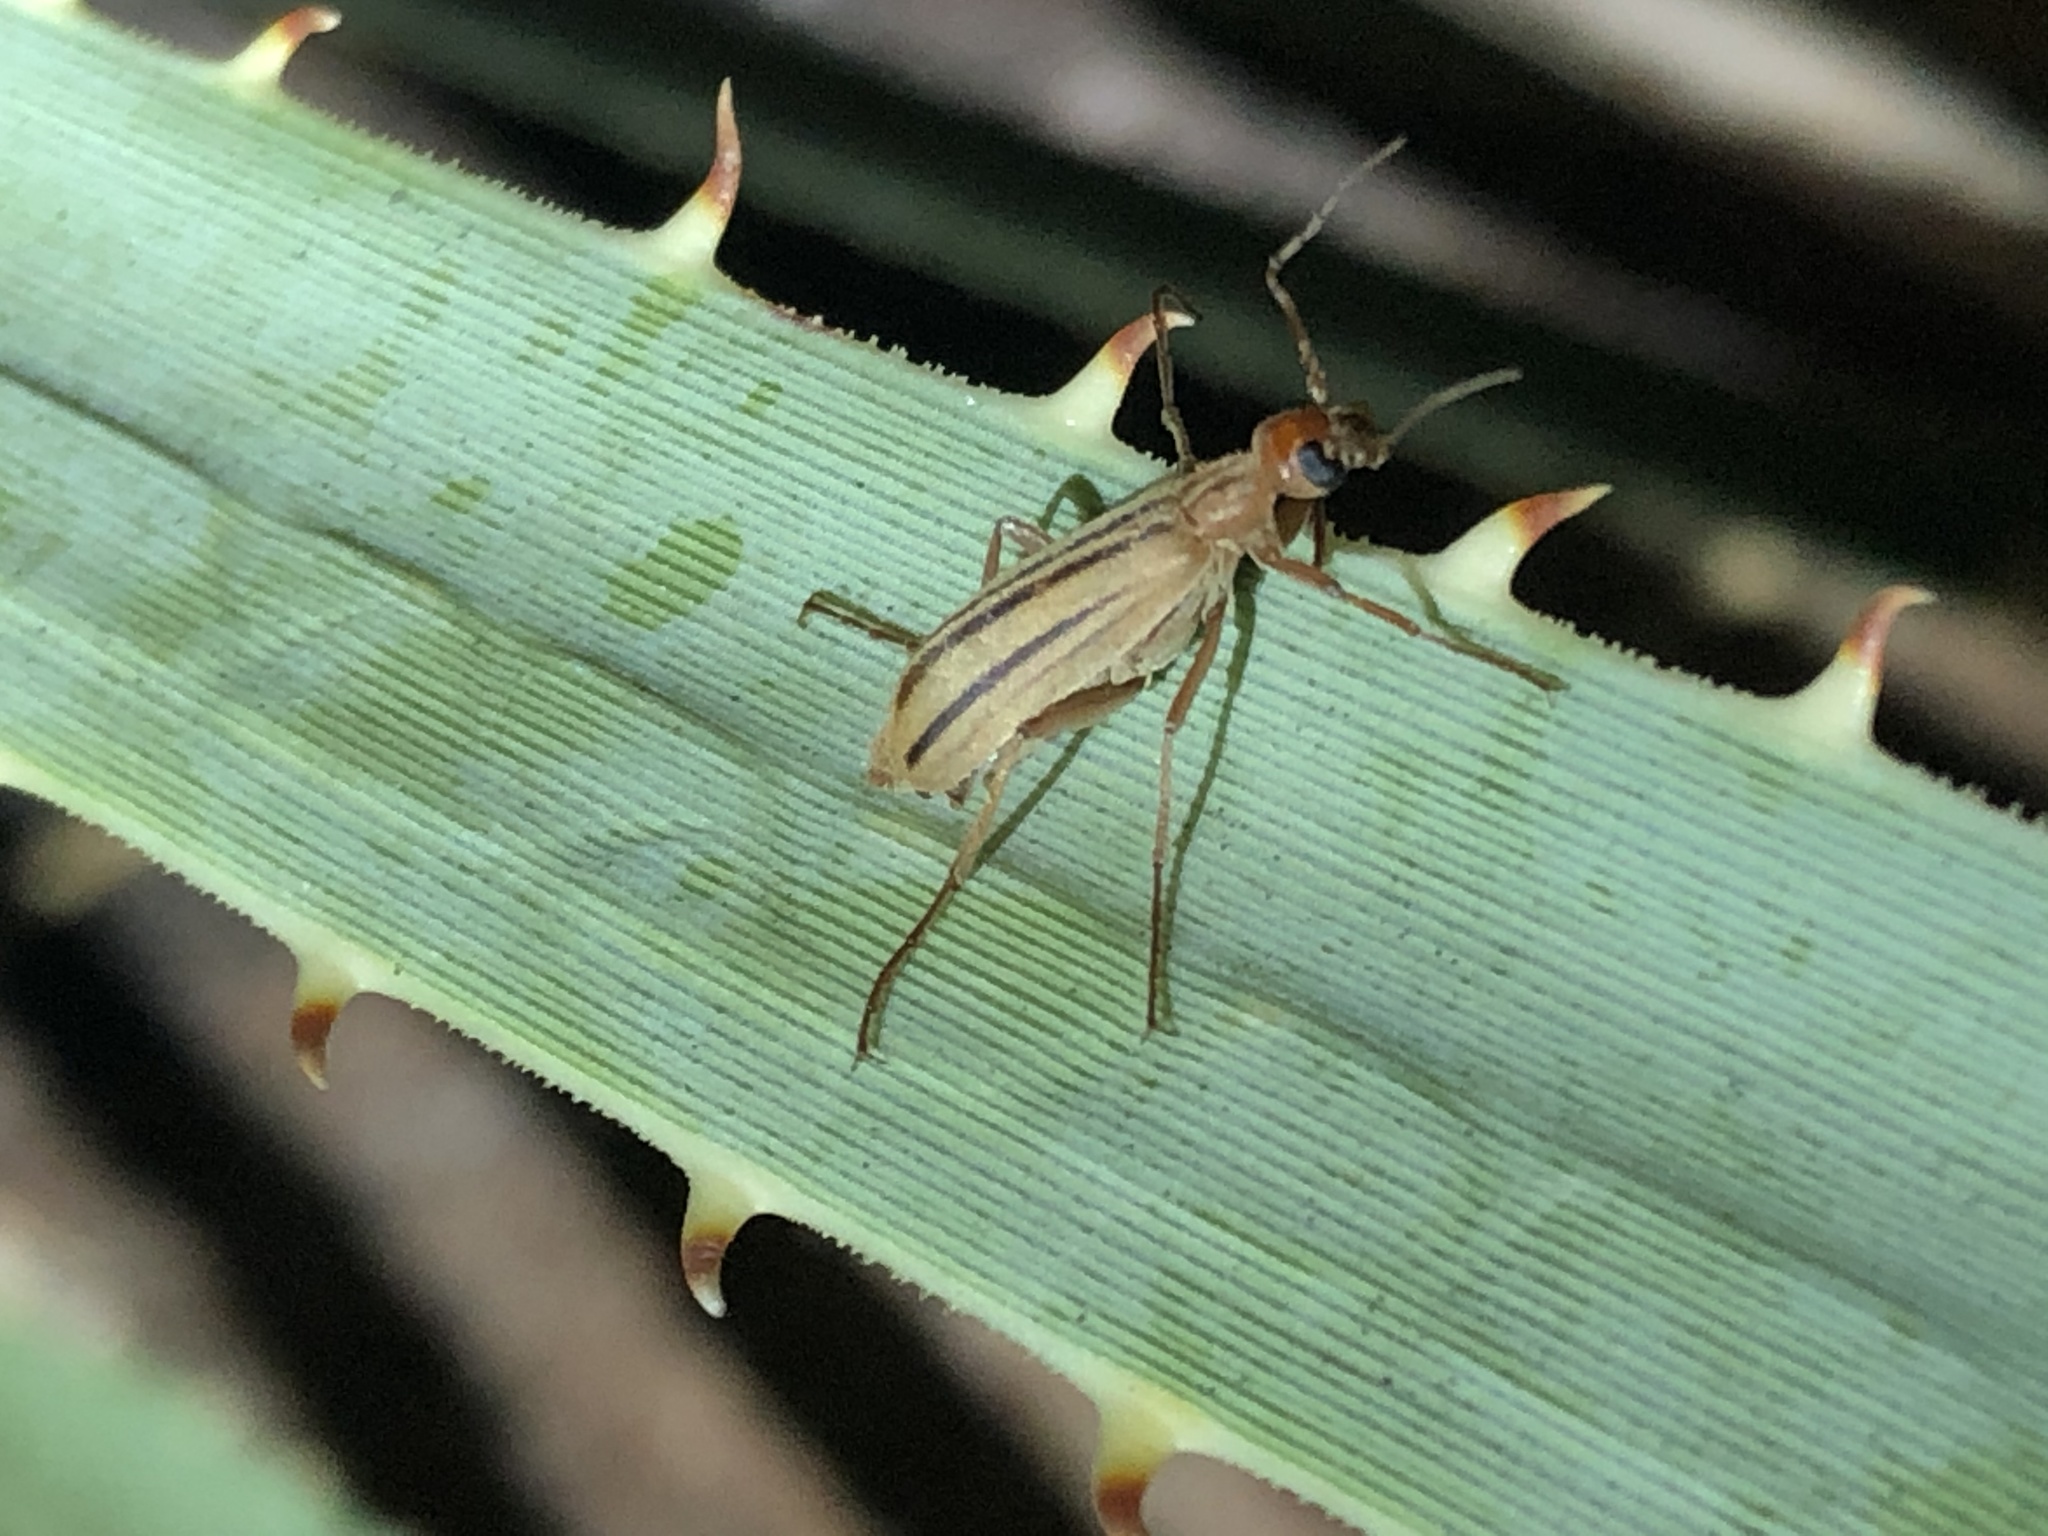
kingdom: Animalia
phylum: Arthropoda
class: Insecta
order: Coleoptera
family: Meloidae
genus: Epicauta
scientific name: Epicauta abadona
